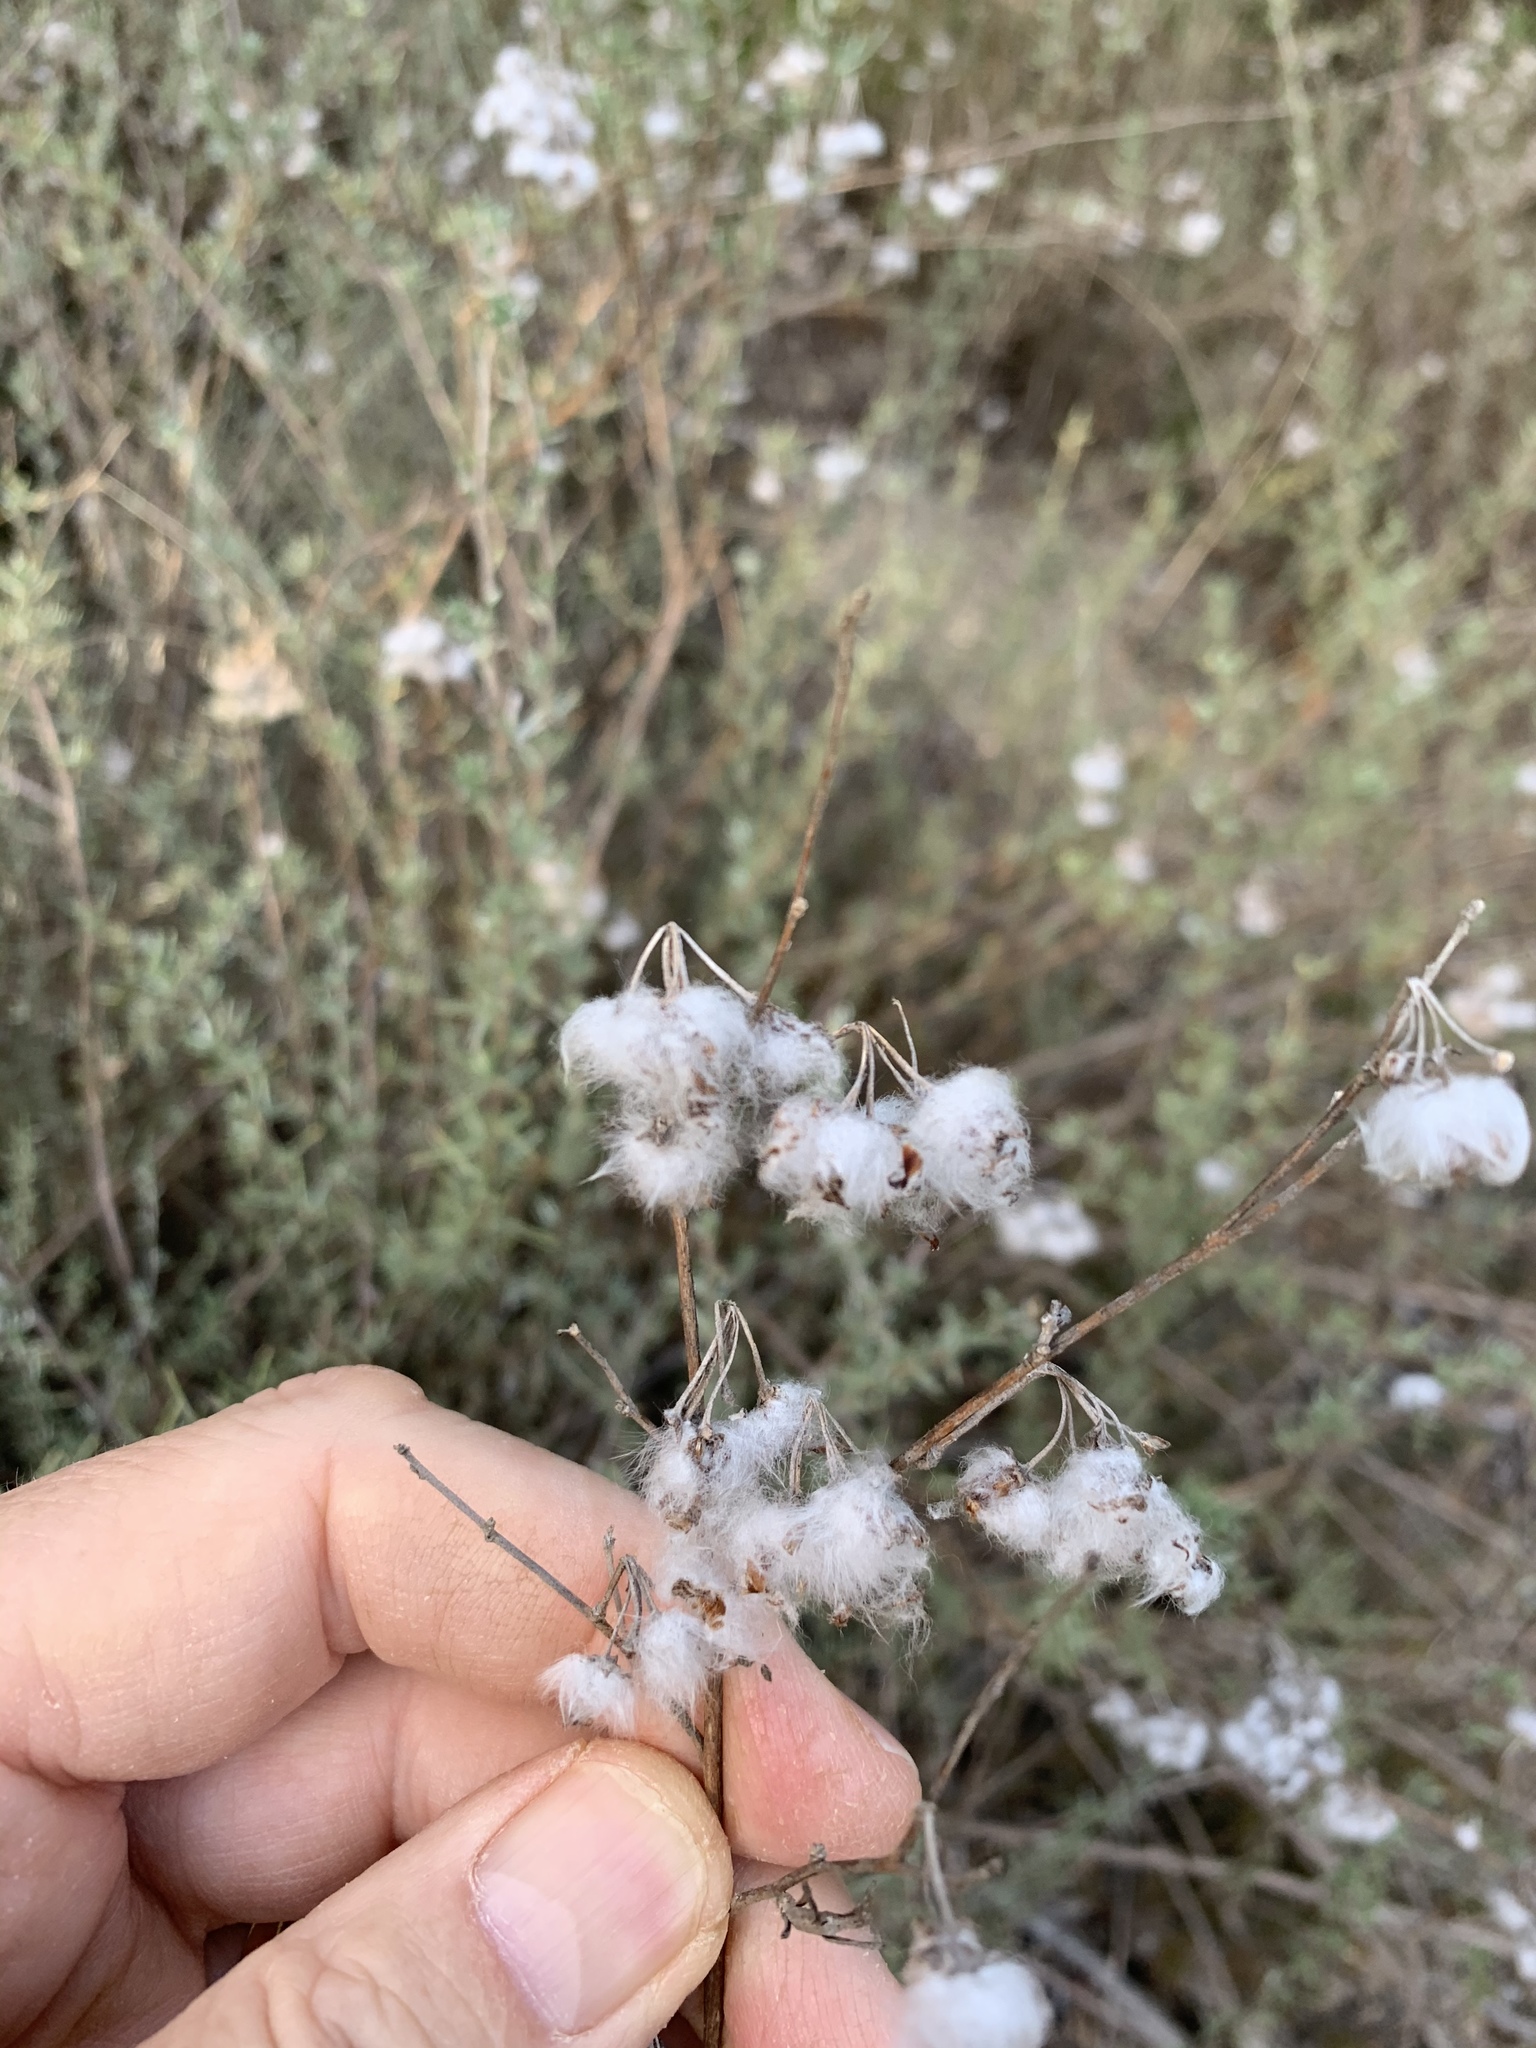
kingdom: Plantae
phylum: Tracheophyta
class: Magnoliopsida
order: Asterales
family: Asteraceae
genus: Eriocephalus
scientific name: Eriocephalus africanus
